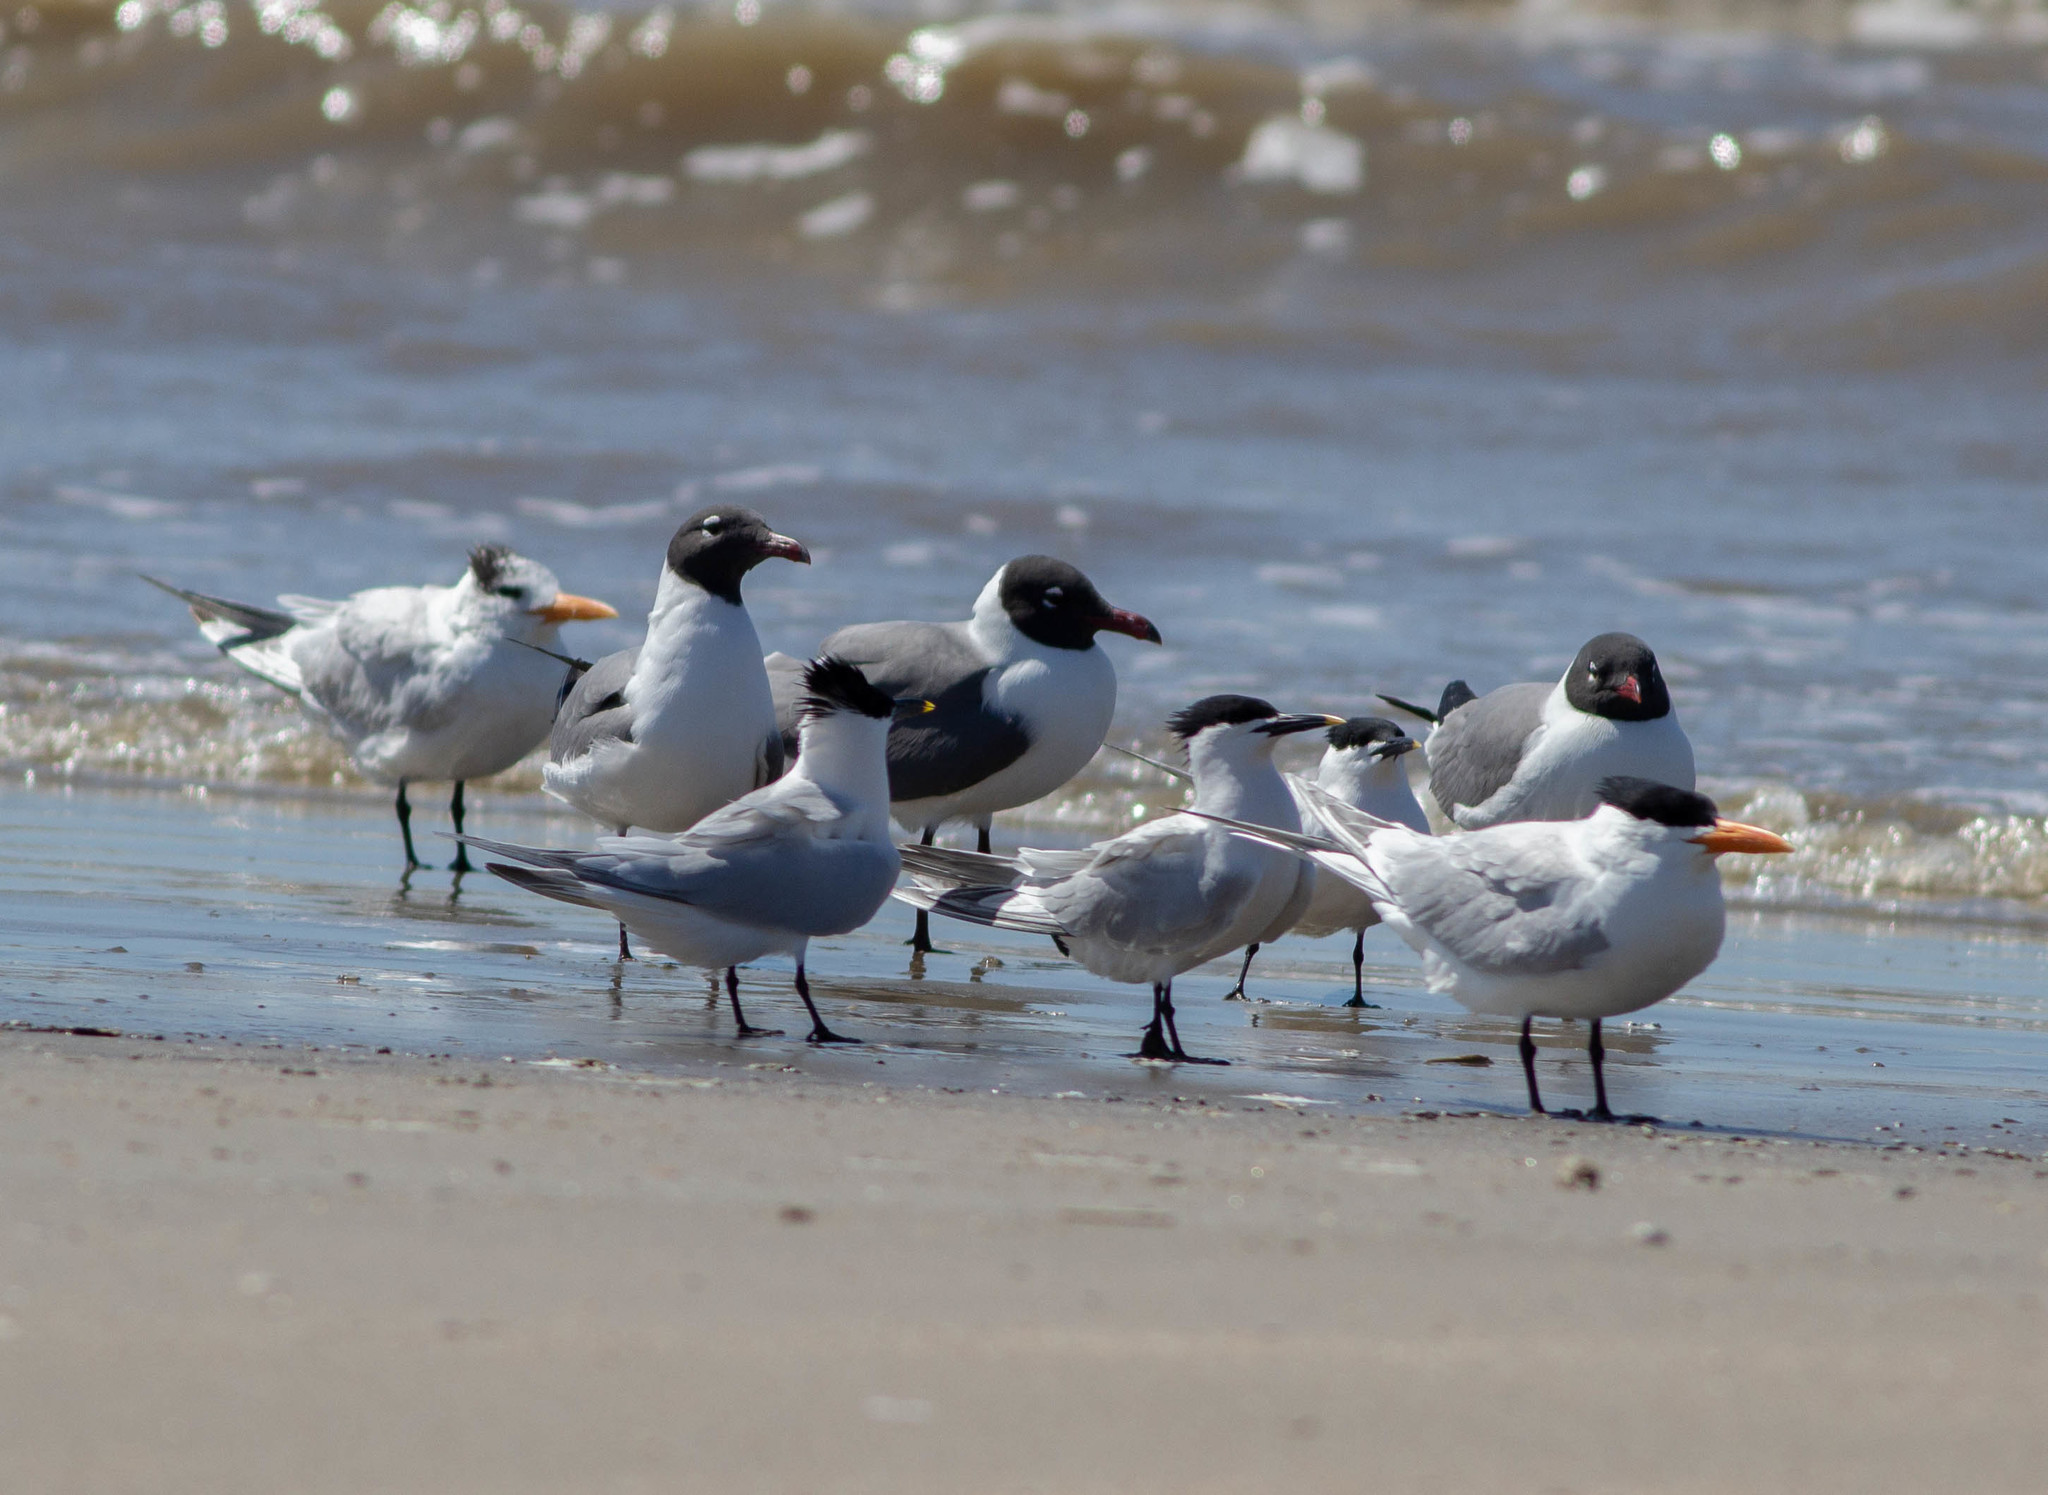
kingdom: Animalia
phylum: Chordata
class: Aves
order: Charadriiformes
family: Laridae
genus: Thalasseus
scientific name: Thalasseus sandvicensis
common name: Sandwich tern
